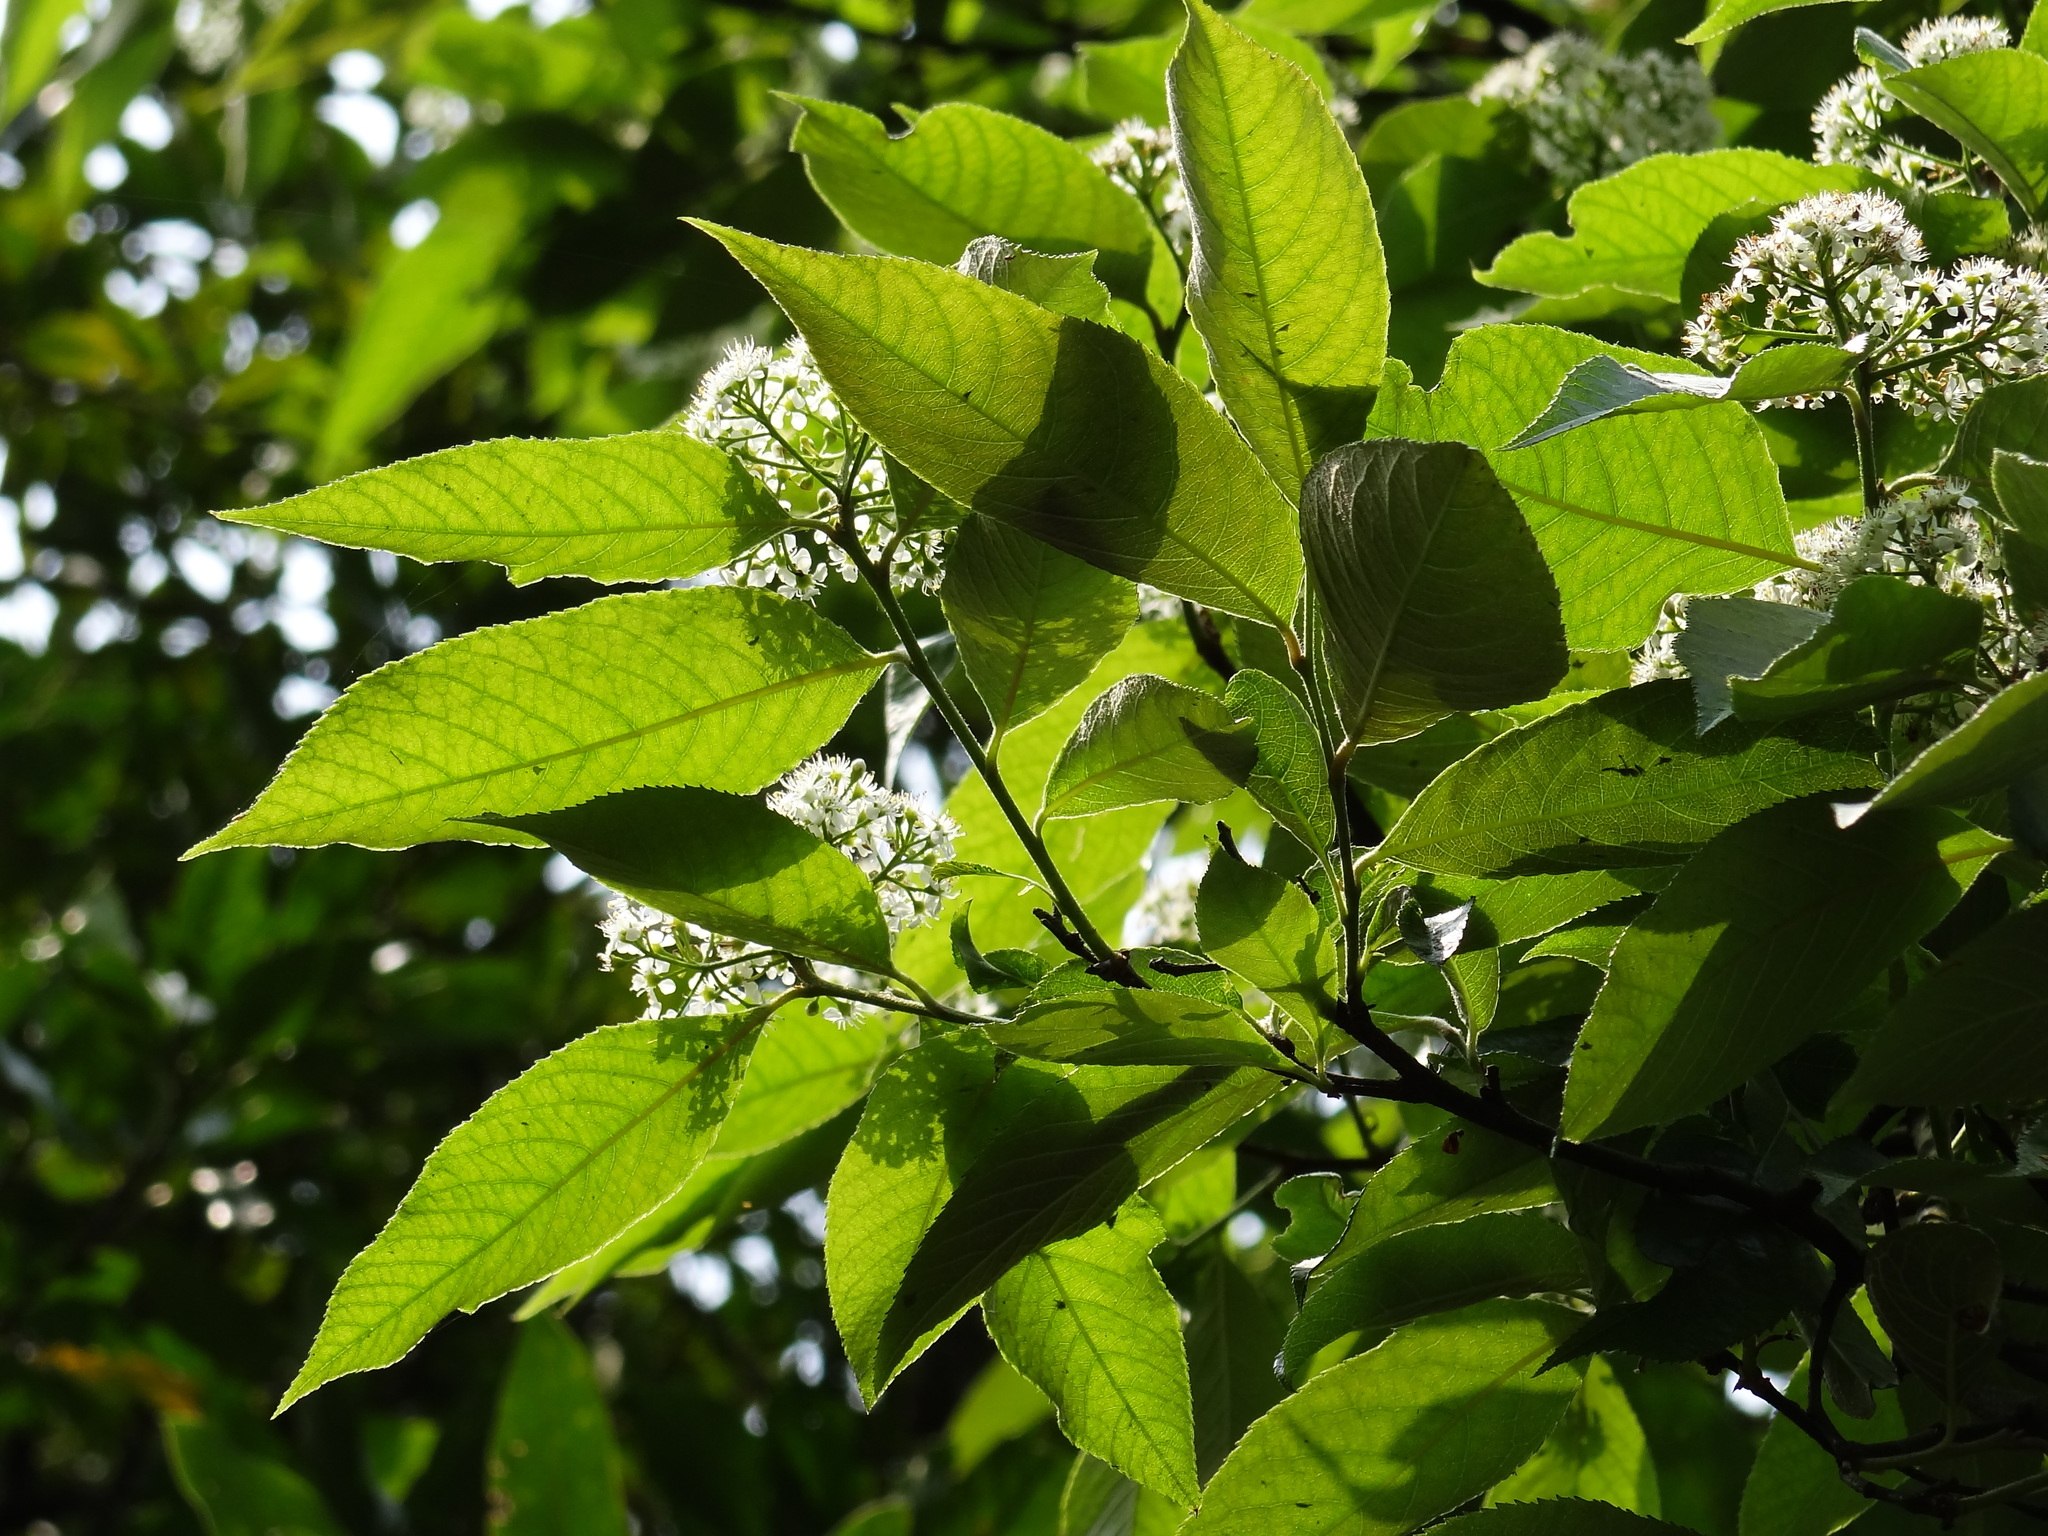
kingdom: Plantae
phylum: Tracheophyta
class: Magnoliopsida
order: Rosales
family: Rosaceae
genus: Pourthiaea
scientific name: Pourthiaea beauverdiana
